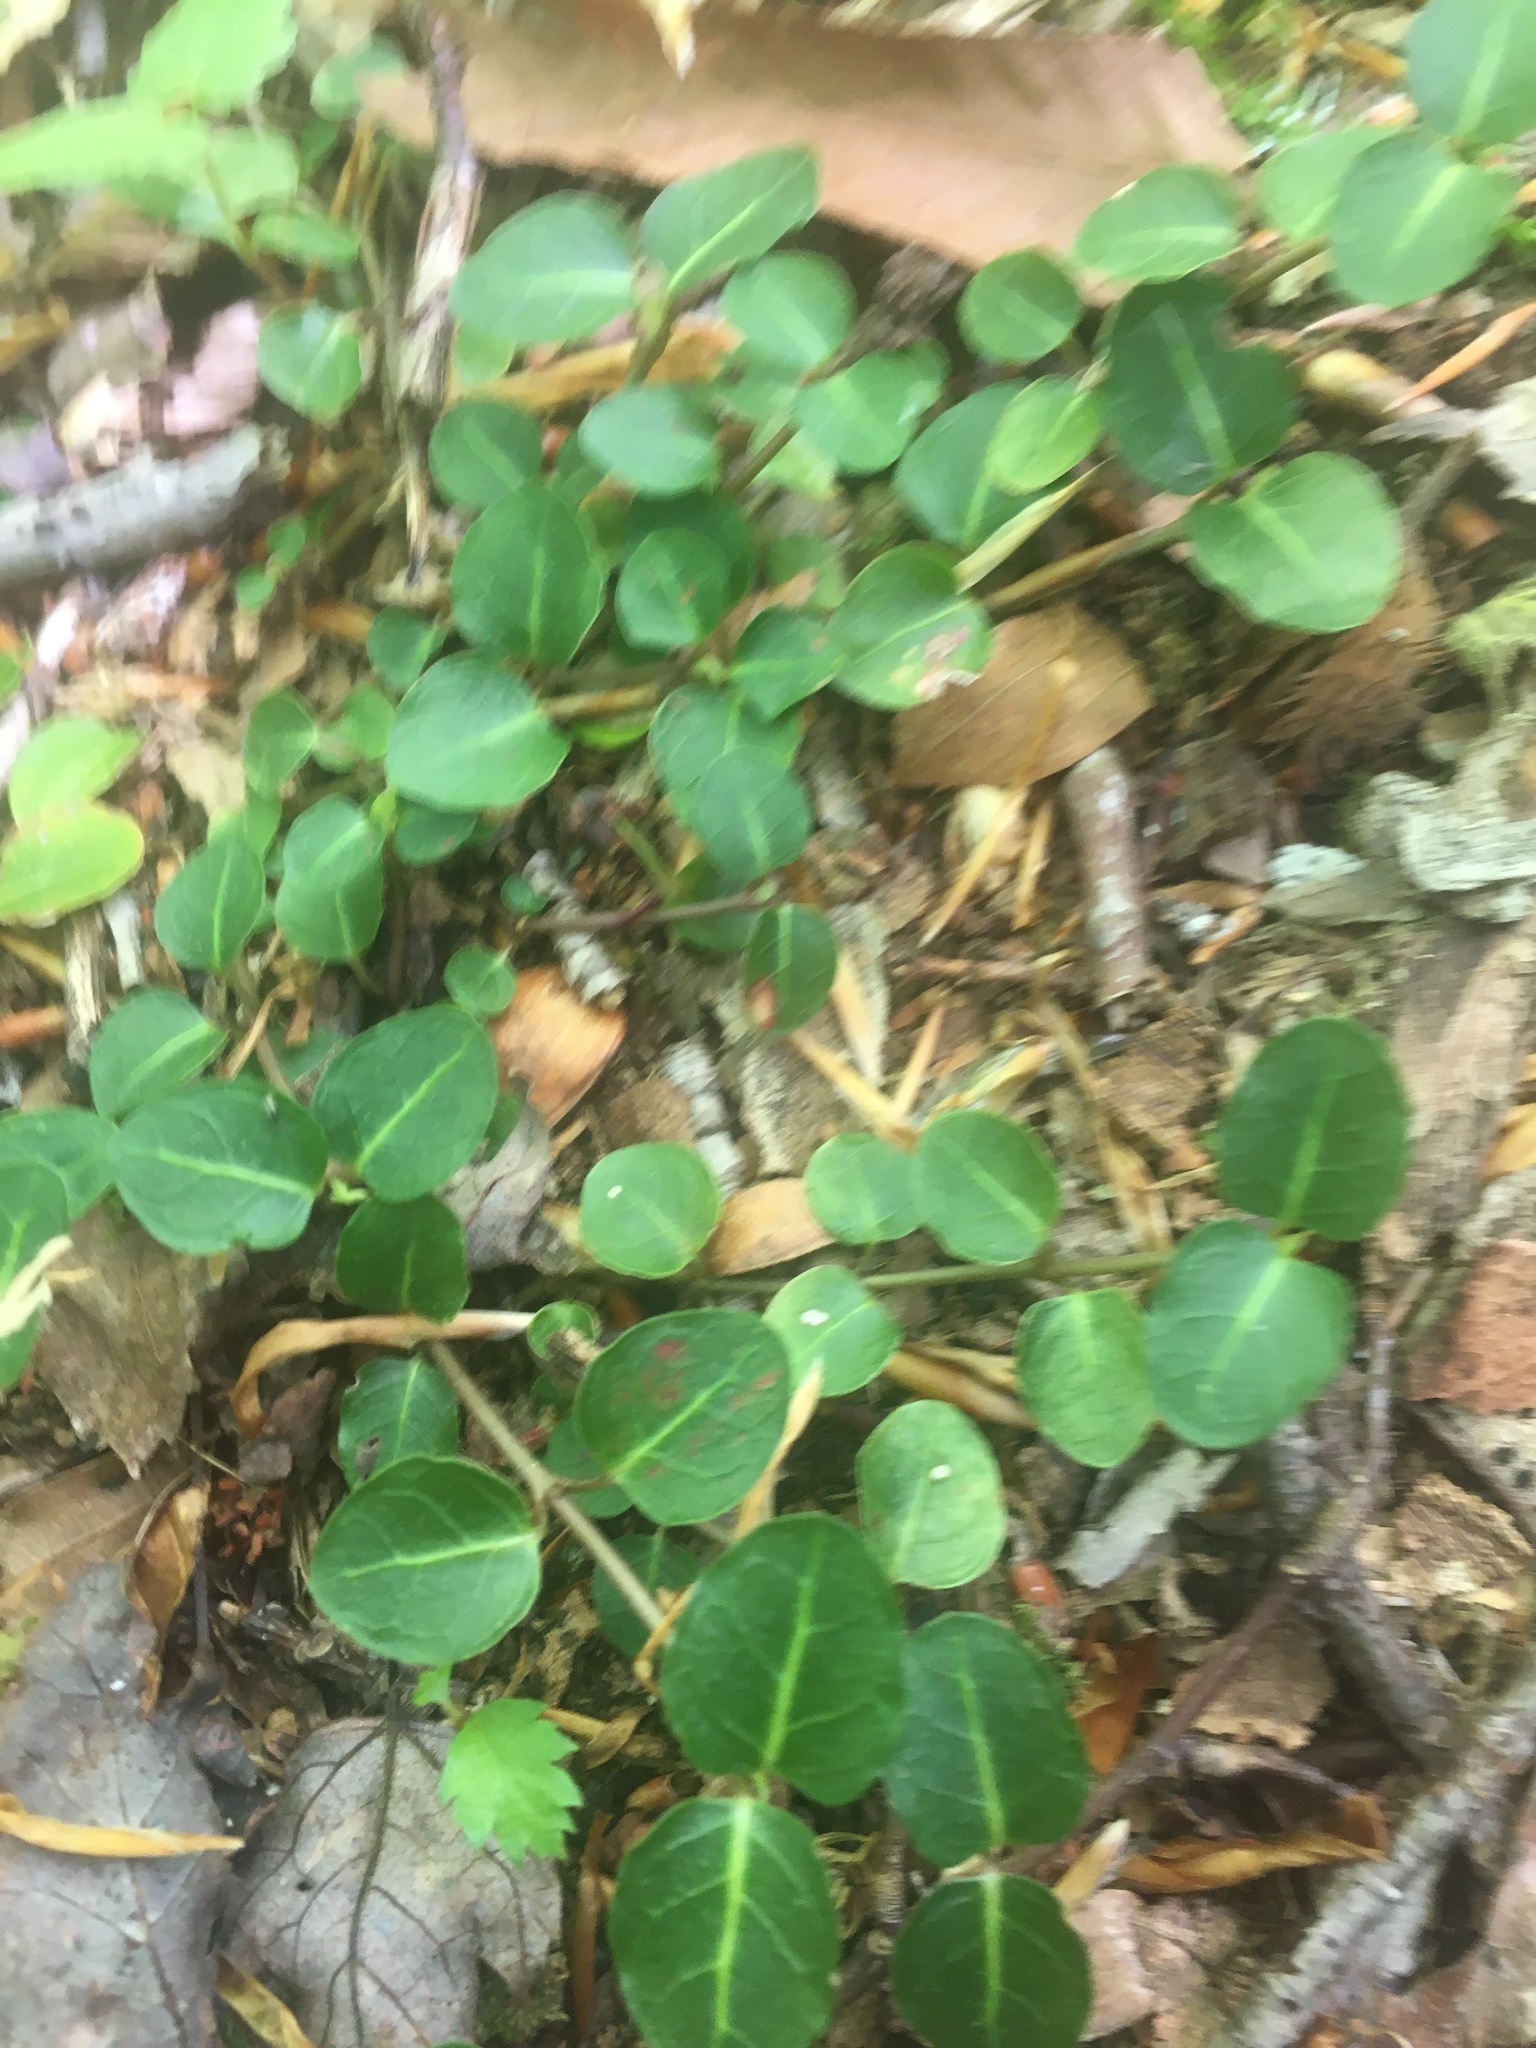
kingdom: Plantae
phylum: Tracheophyta
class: Magnoliopsida
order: Gentianales
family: Rubiaceae
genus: Mitchella
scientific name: Mitchella repens
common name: Partridge-berry
